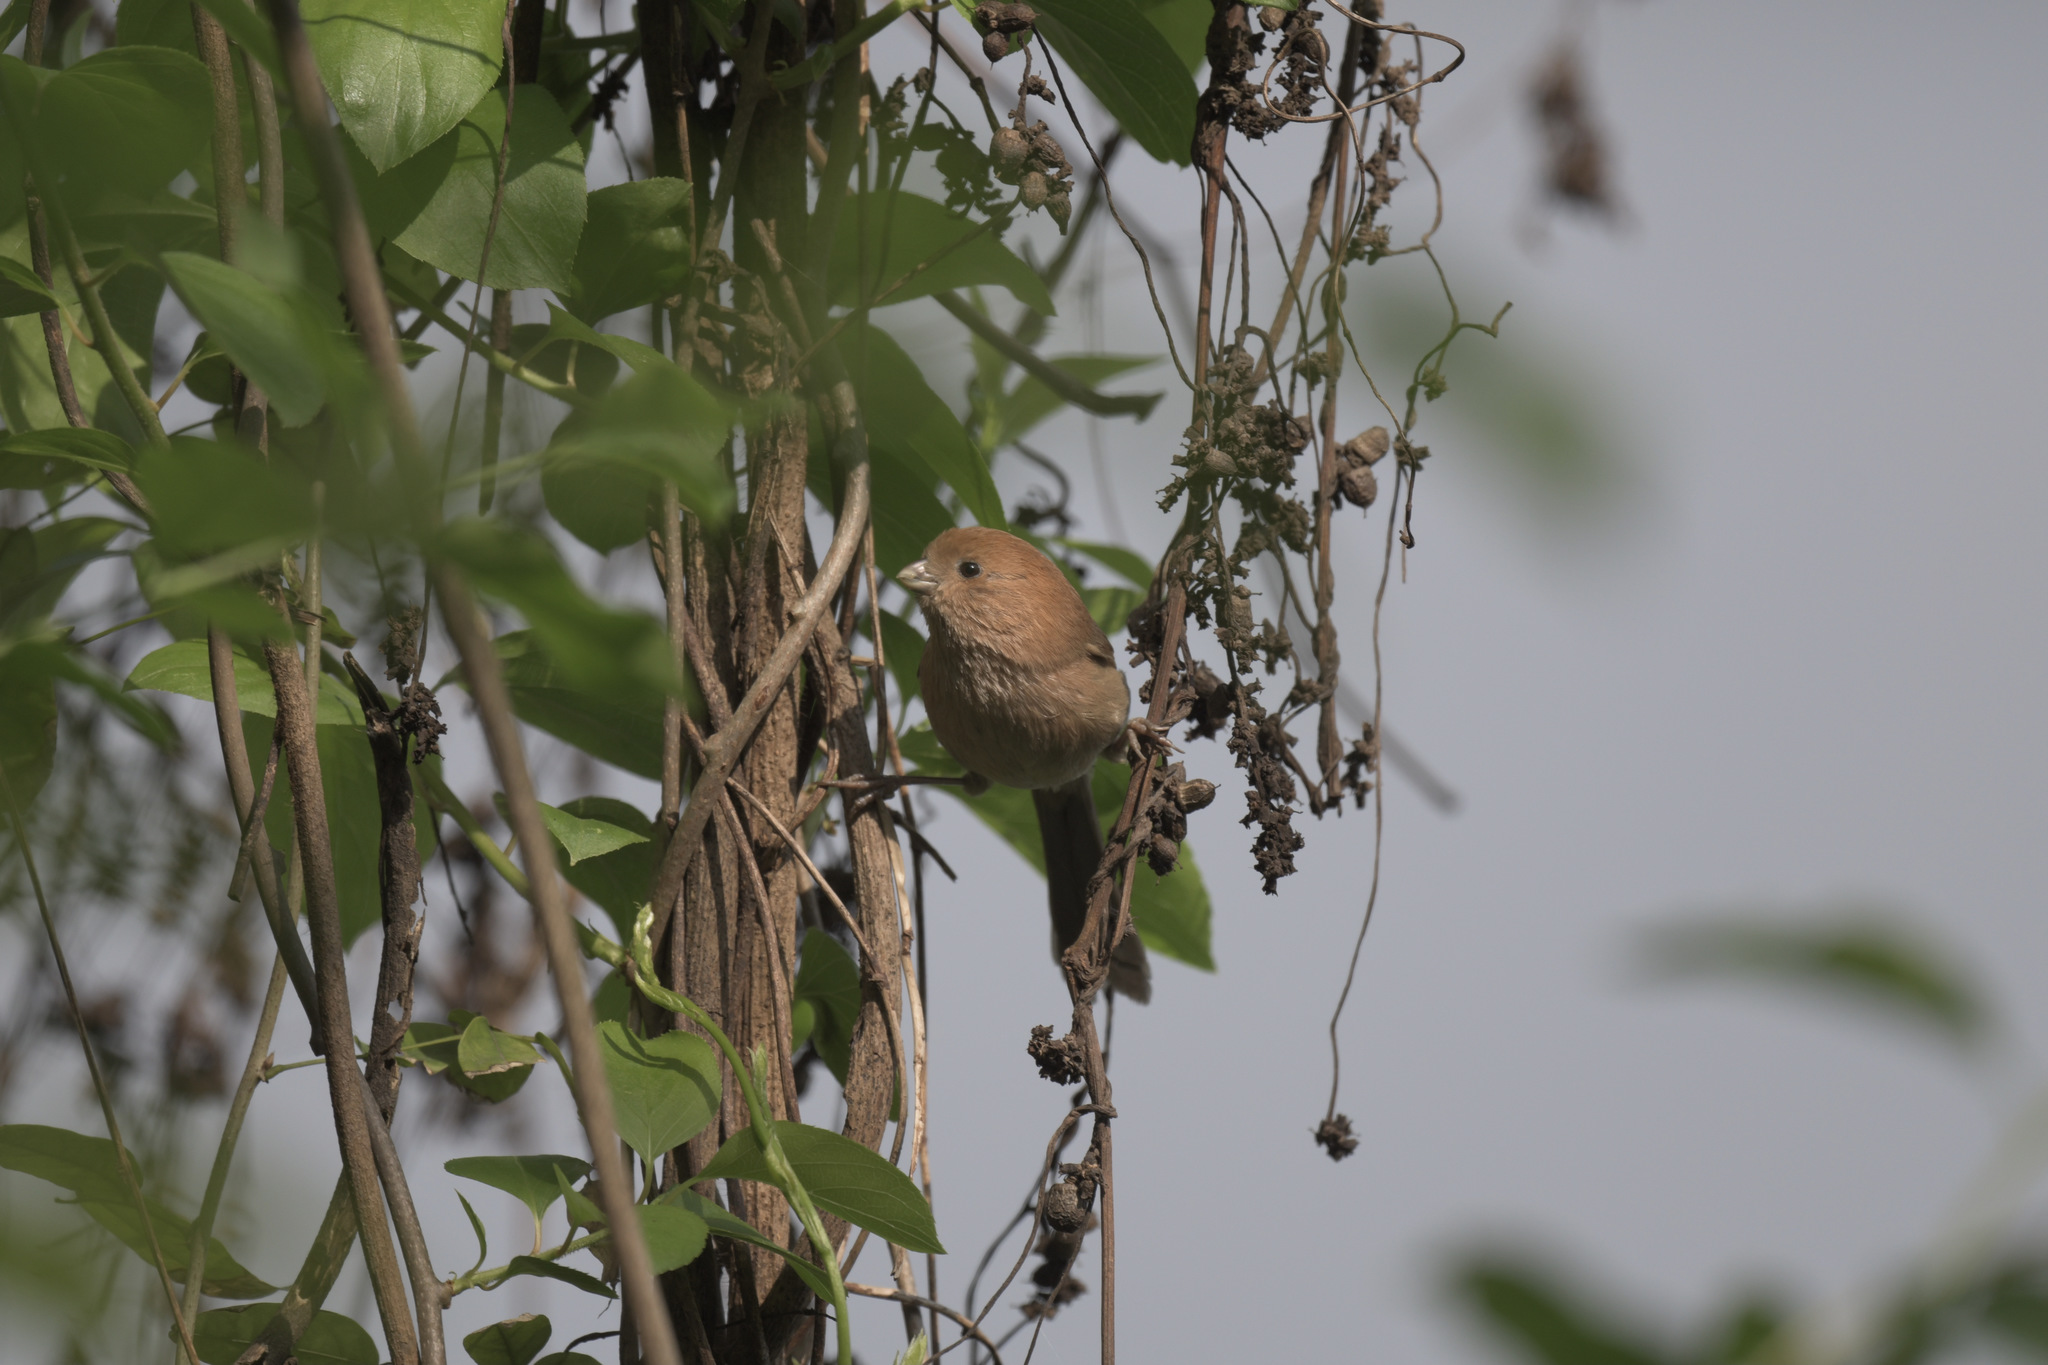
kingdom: Animalia
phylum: Chordata
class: Aves
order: Passeriformes
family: Sylviidae
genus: Sinosuthora
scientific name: Sinosuthora webbiana
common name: Vinous-throated parrotbill
